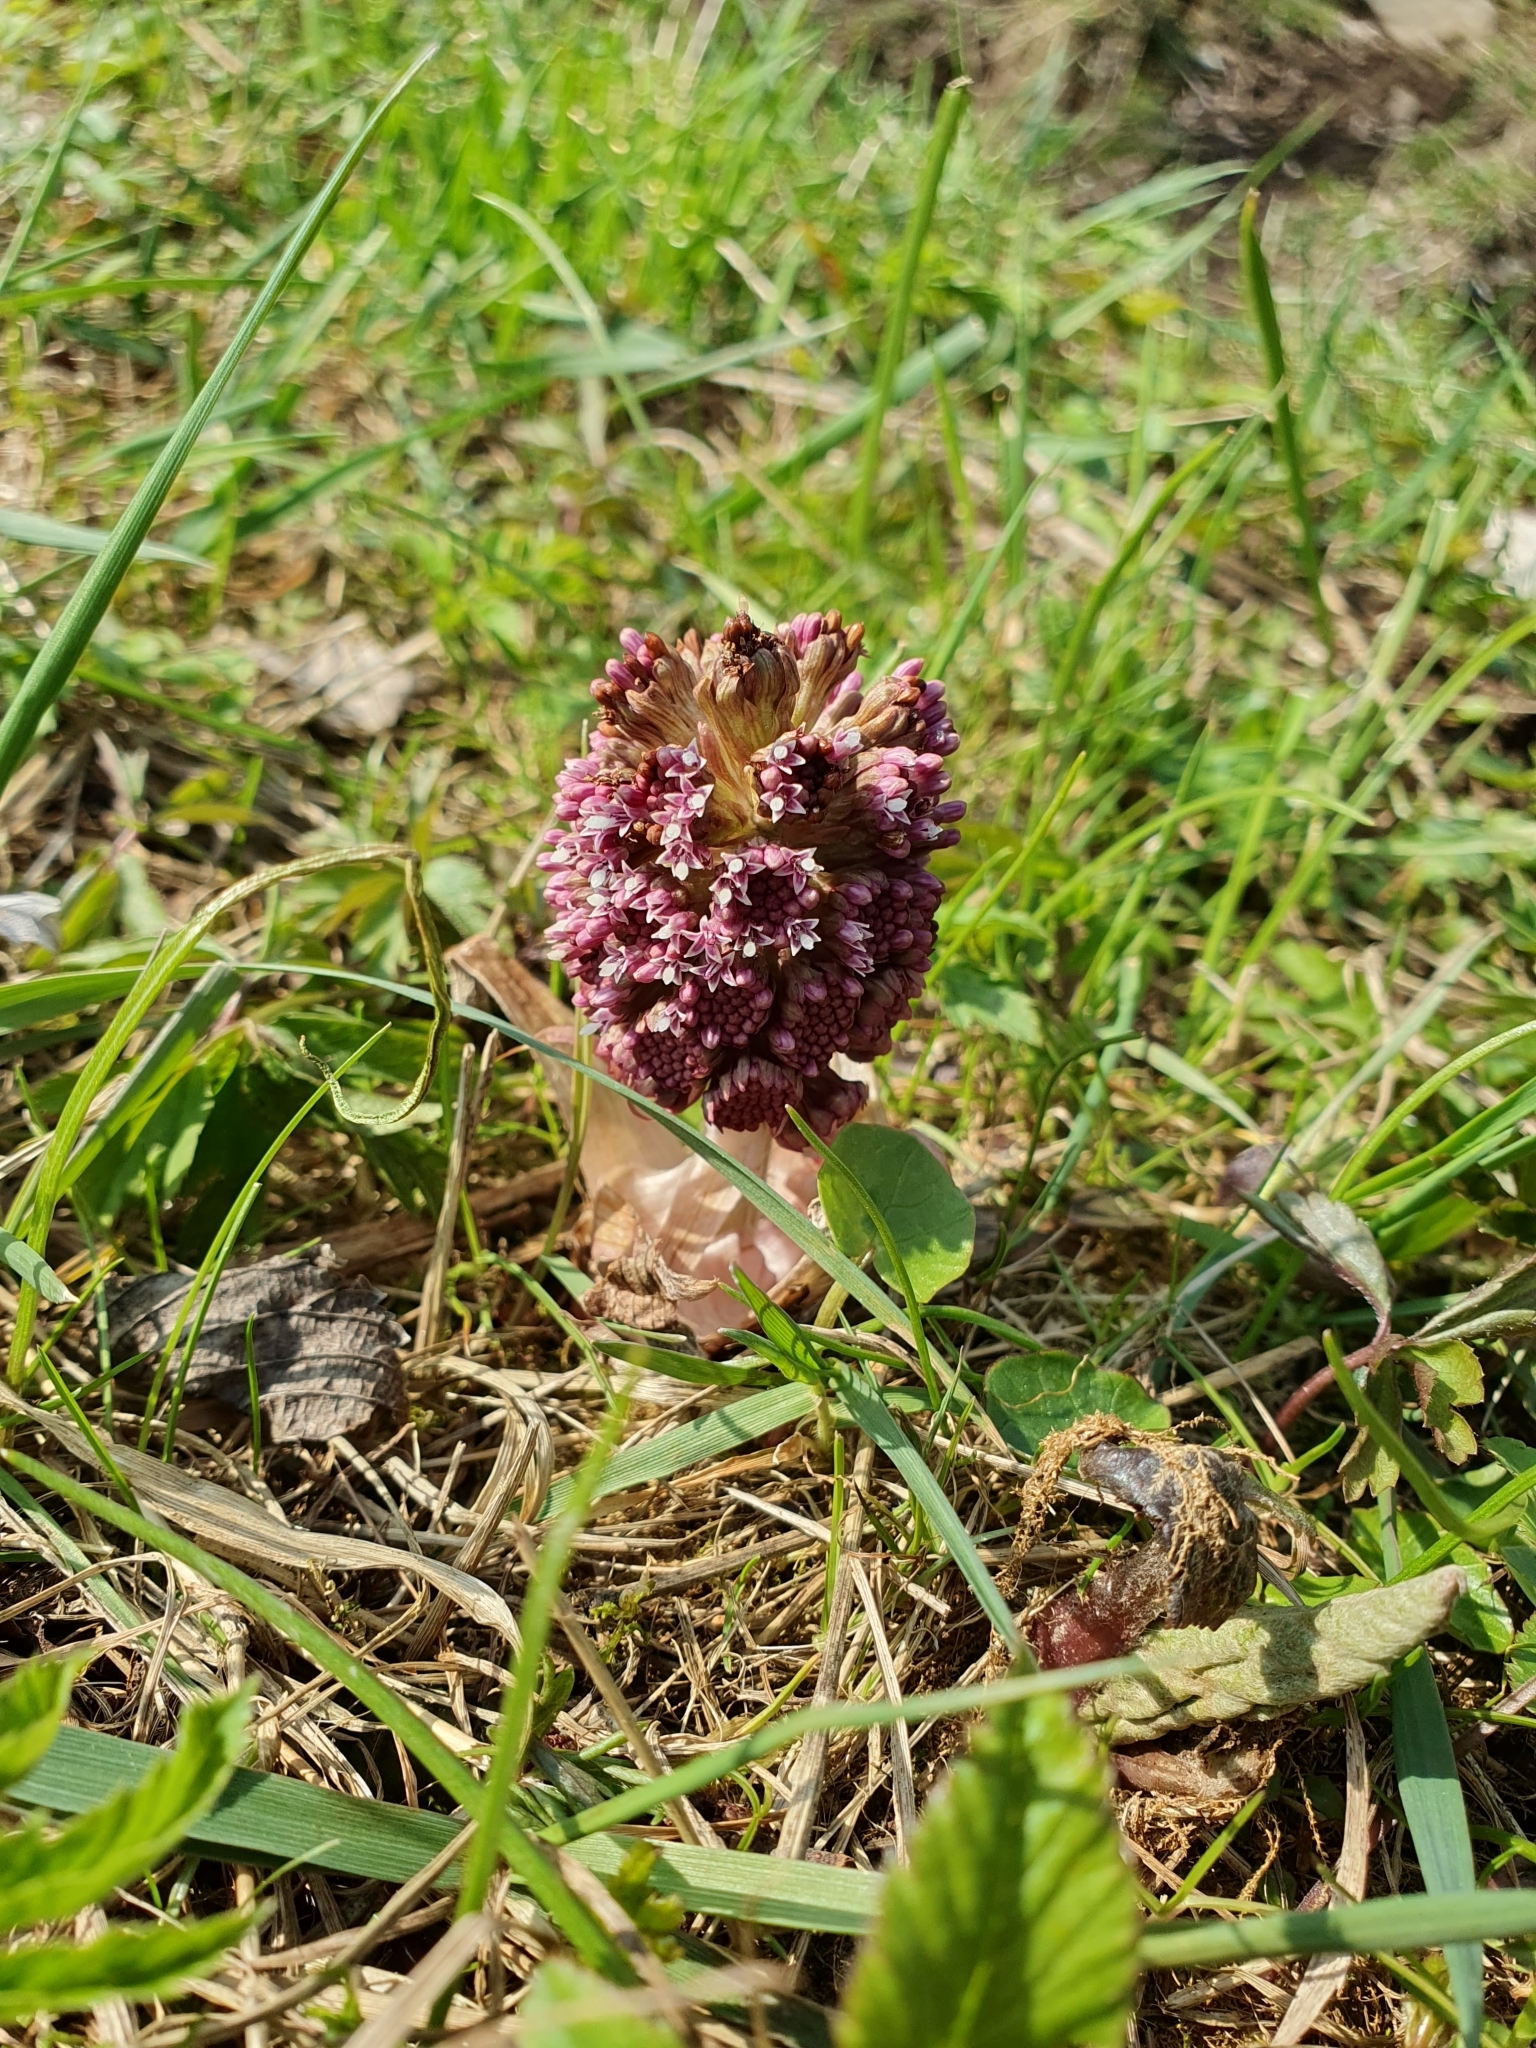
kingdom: Plantae
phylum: Tracheophyta
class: Magnoliopsida
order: Asterales
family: Asteraceae
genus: Petasites
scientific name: Petasites hybridus
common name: Butterbur
